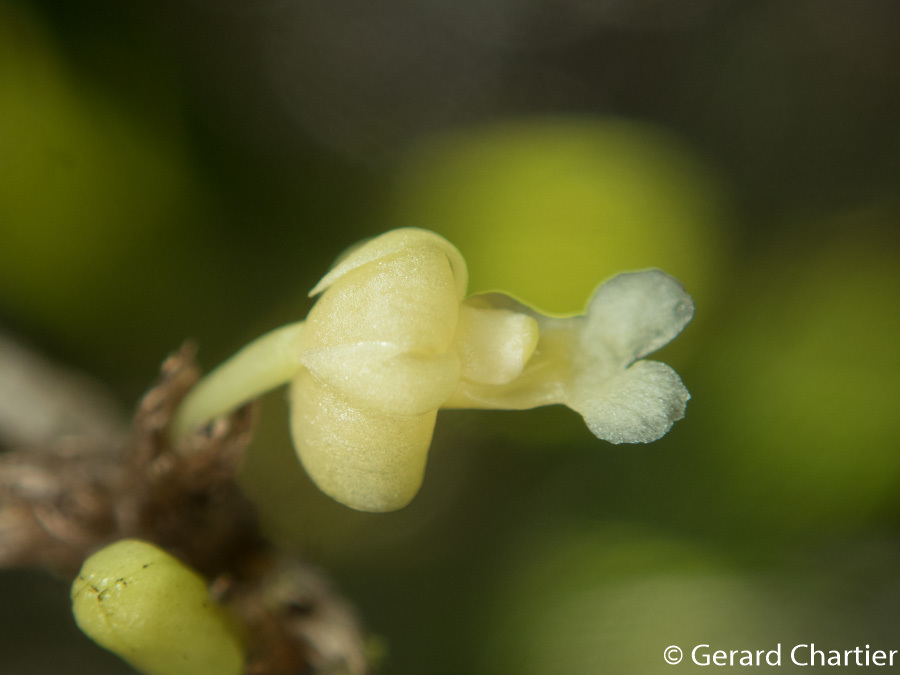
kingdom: Plantae
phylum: Tracheophyta
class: Liliopsida
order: Asparagales
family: Orchidaceae
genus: Dendrobium
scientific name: Dendrobium aloifolium
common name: Aloe-like dendrobium
